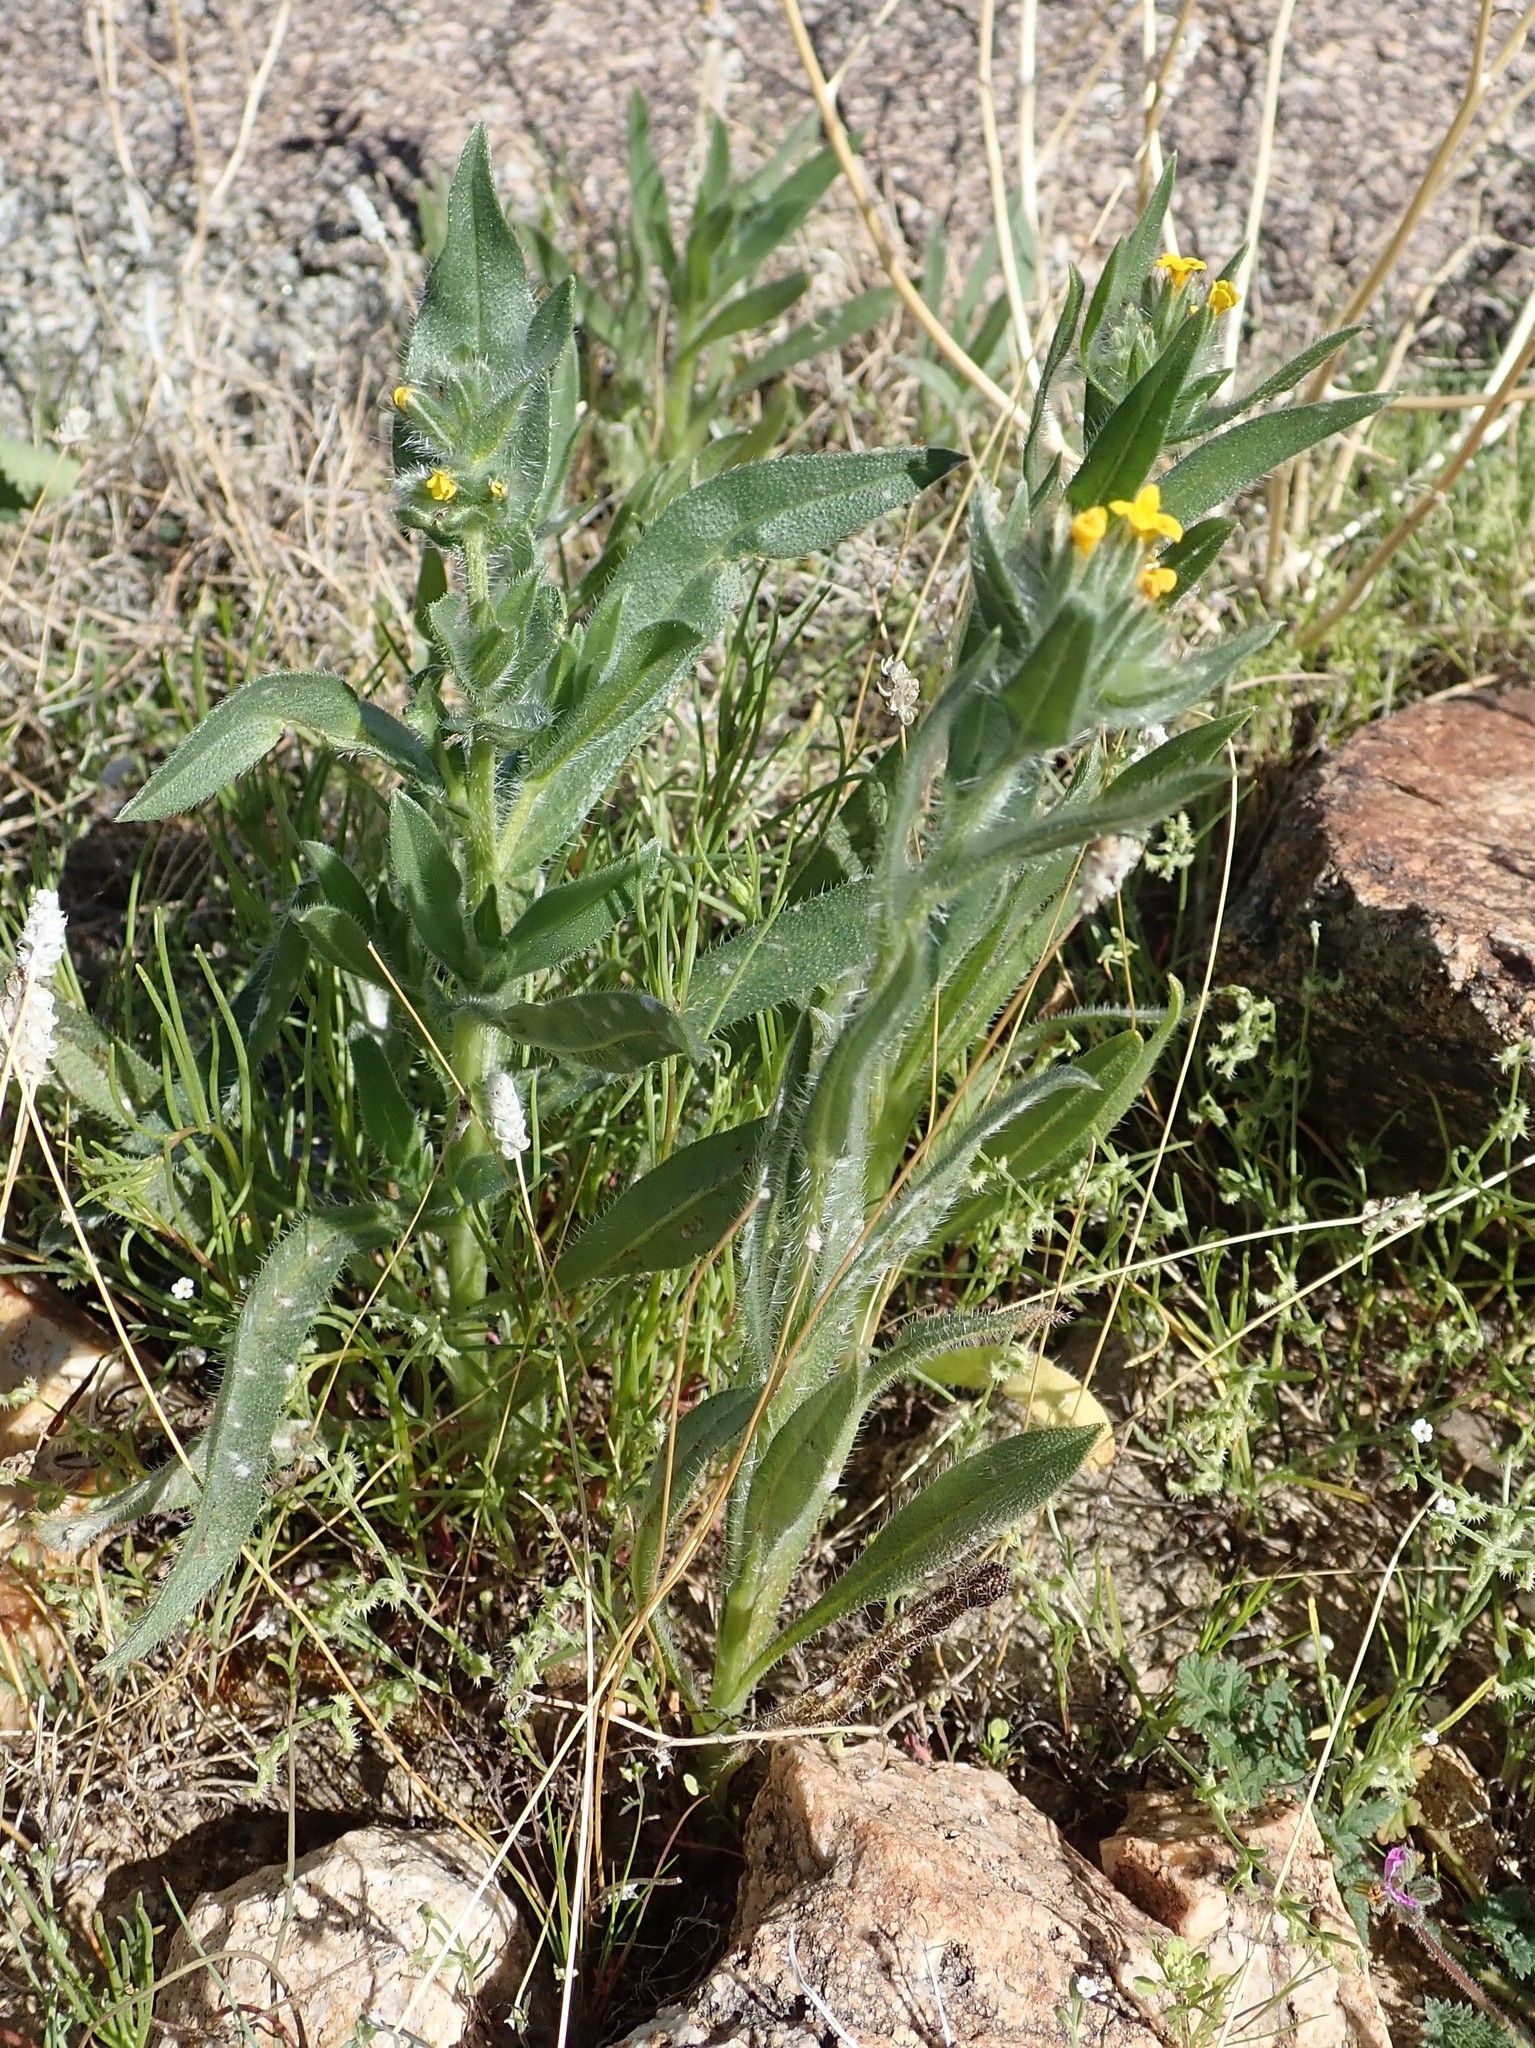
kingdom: Plantae
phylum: Tracheophyta
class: Magnoliopsida
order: Boraginales
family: Boraginaceae
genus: Amsinckia
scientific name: Amsinckia tessellata
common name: Tessellate fiddleneck
